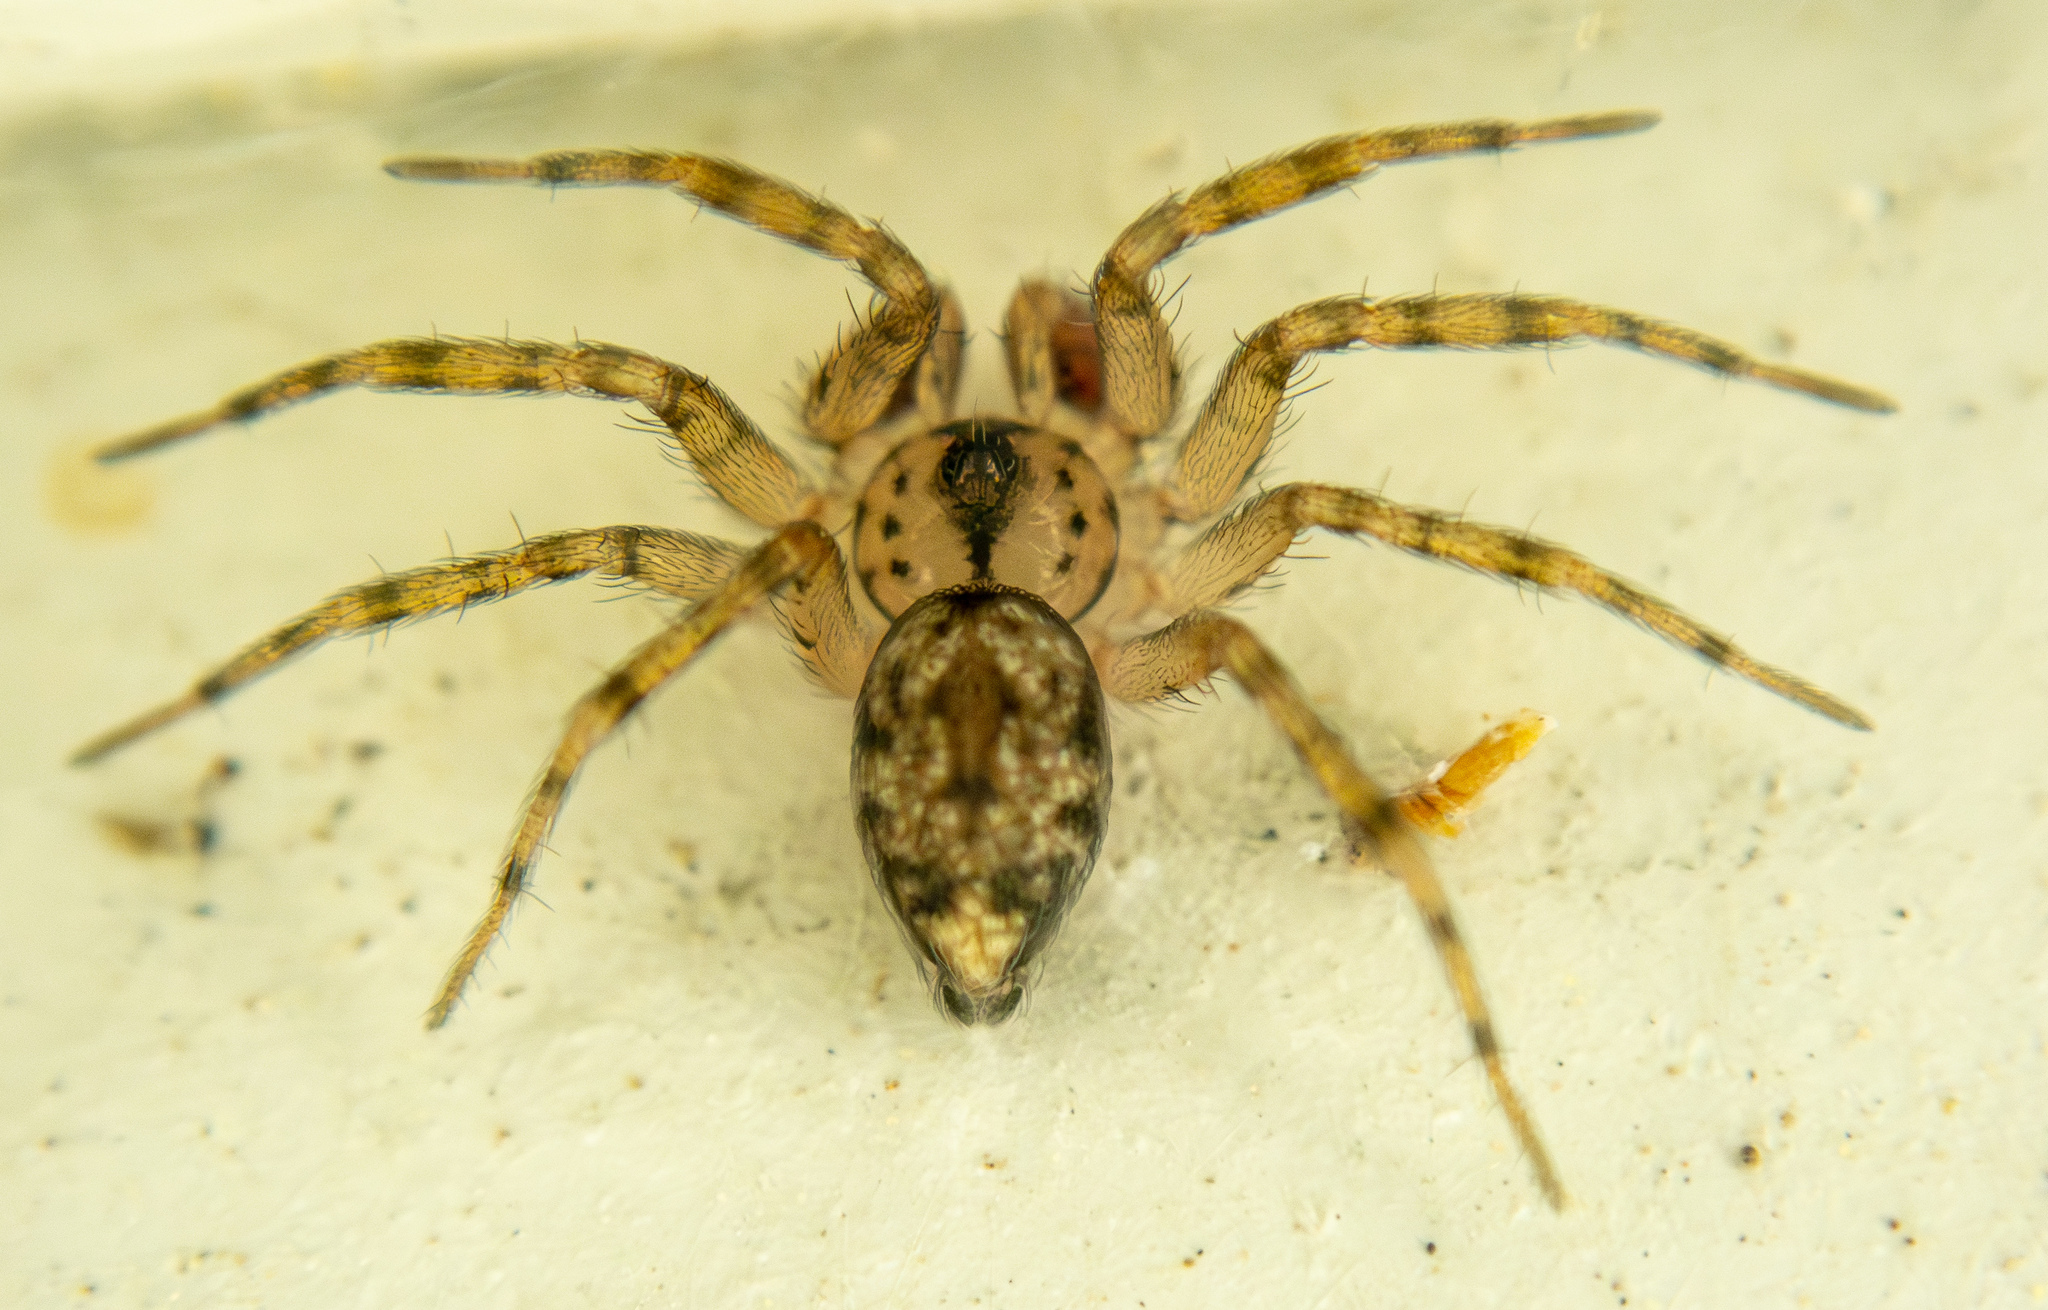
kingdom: Animalia
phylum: Arthropoda
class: Arachnida
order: Araneae
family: Oecobiidae
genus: Oecobius
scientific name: Oecobius navus
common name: Flatmesh weaver
